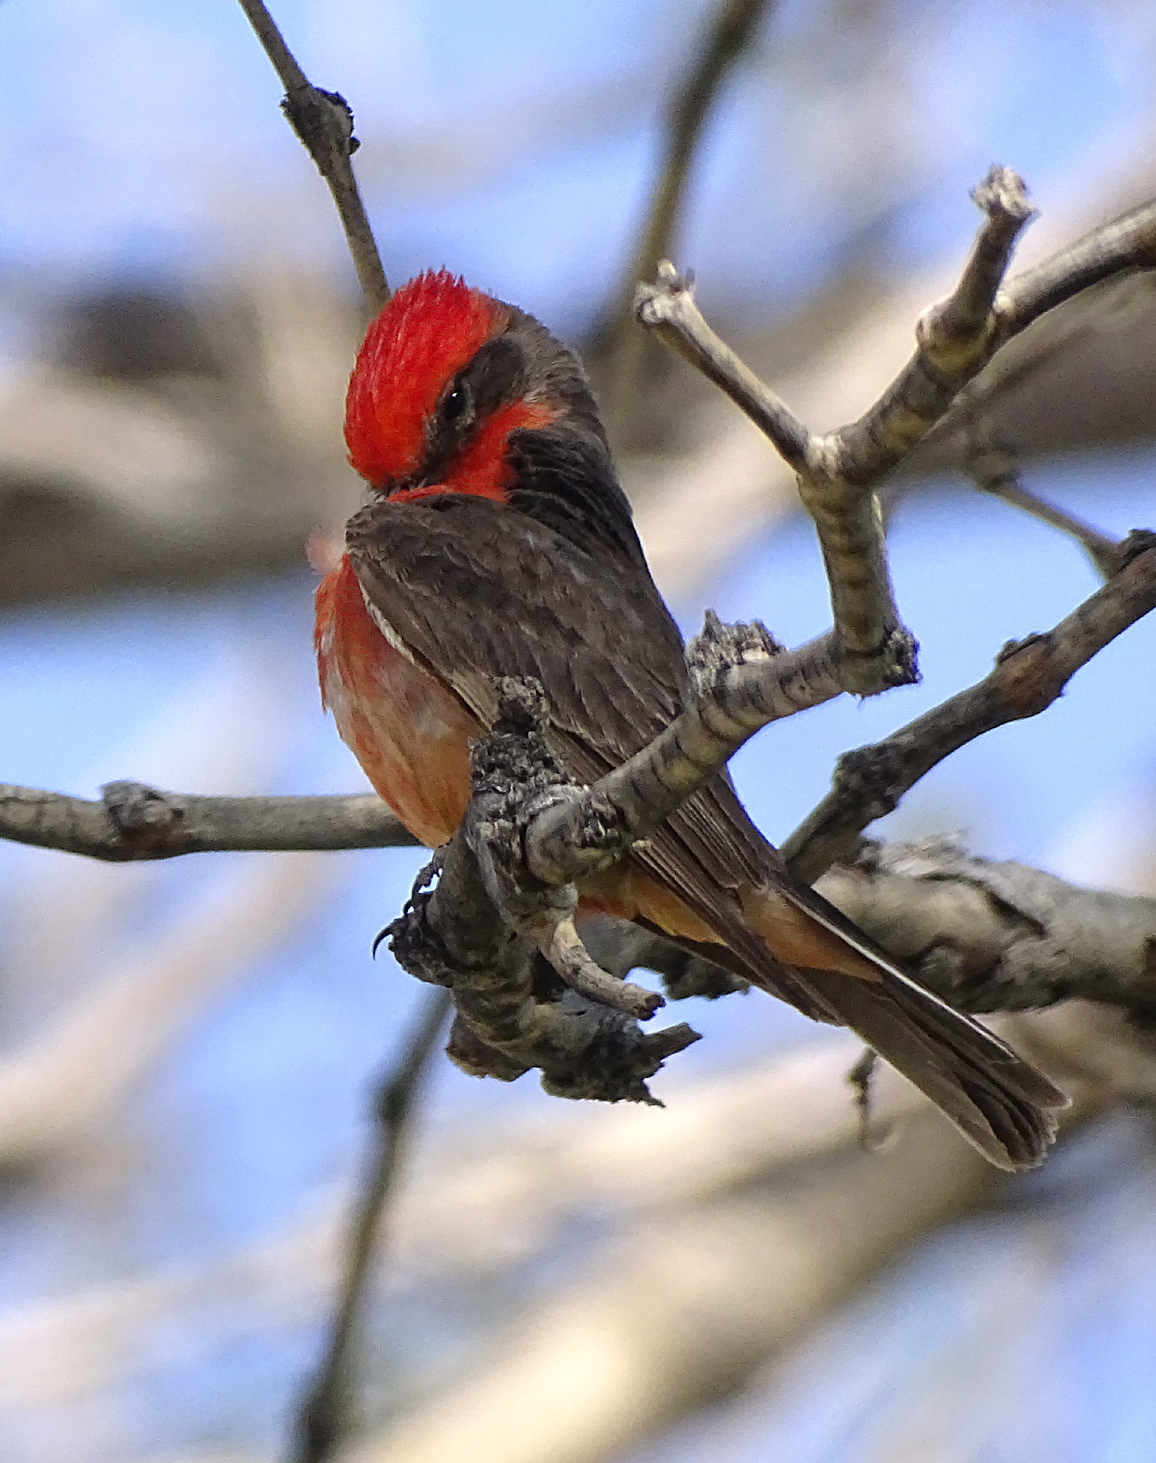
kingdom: Animalia
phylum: Chordata
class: Aves
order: Passeriformes
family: Tyrannidae
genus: Pyrocephalus
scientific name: Pyrocephalus rubinus
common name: Vermilion flycatcher
